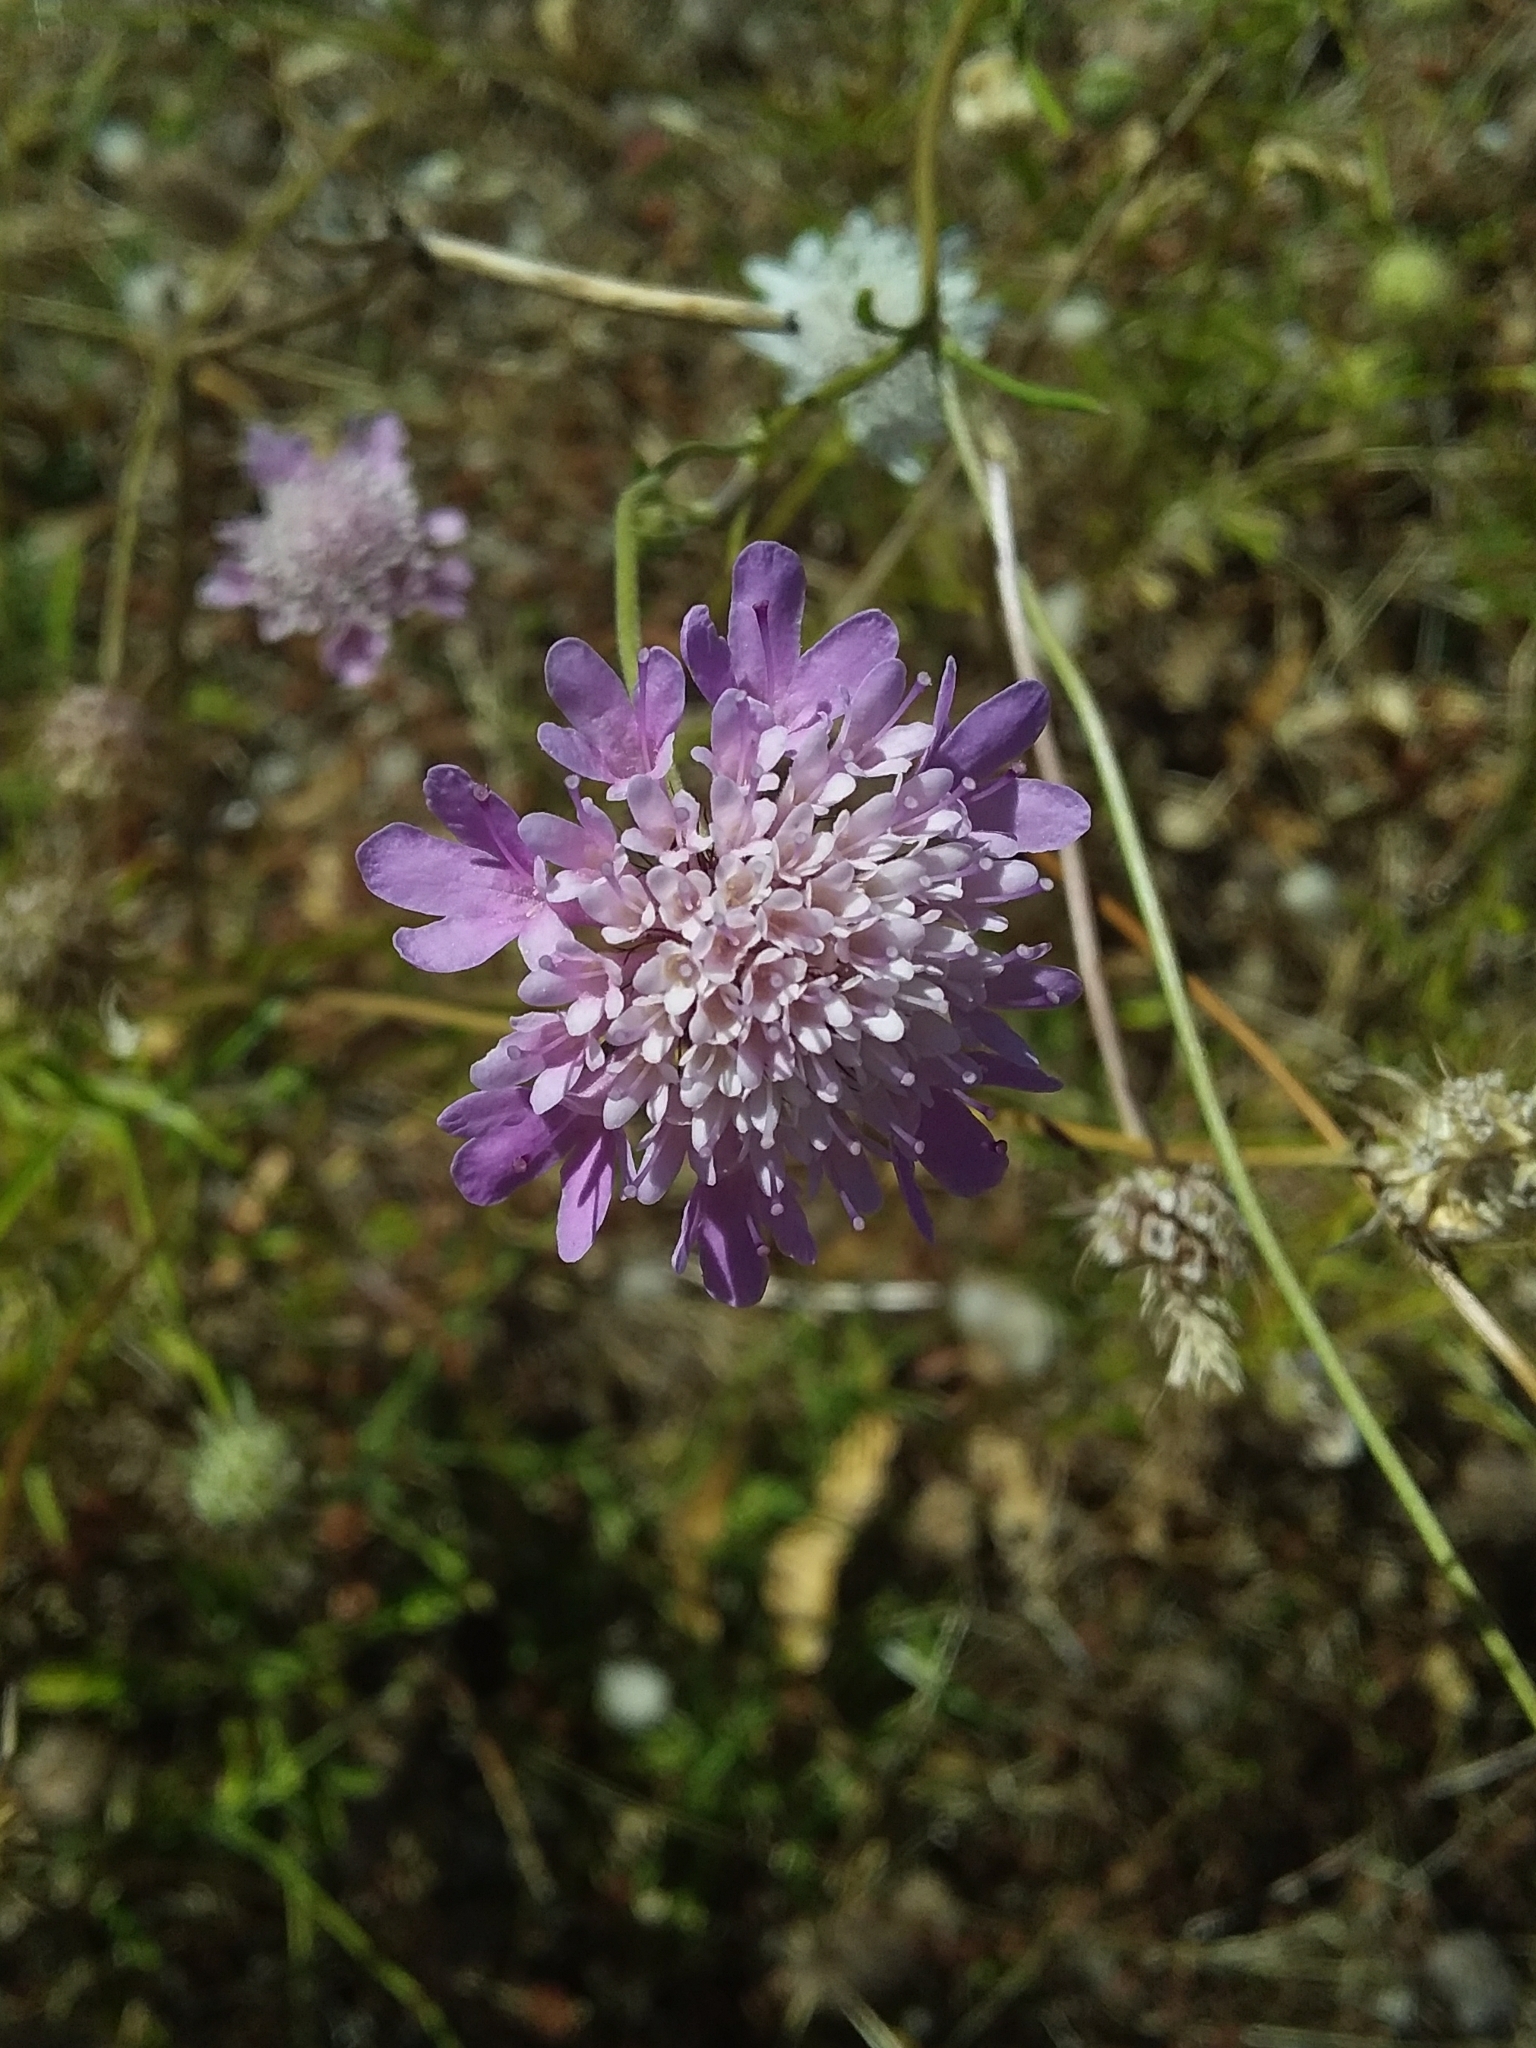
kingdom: Plantae
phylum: Tracheophyta
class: Magnoliopsida
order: Dipsacales
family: Caprifoliaceae
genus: Sixalix
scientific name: Sixalix atropurpurea
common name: Sweet scabious
